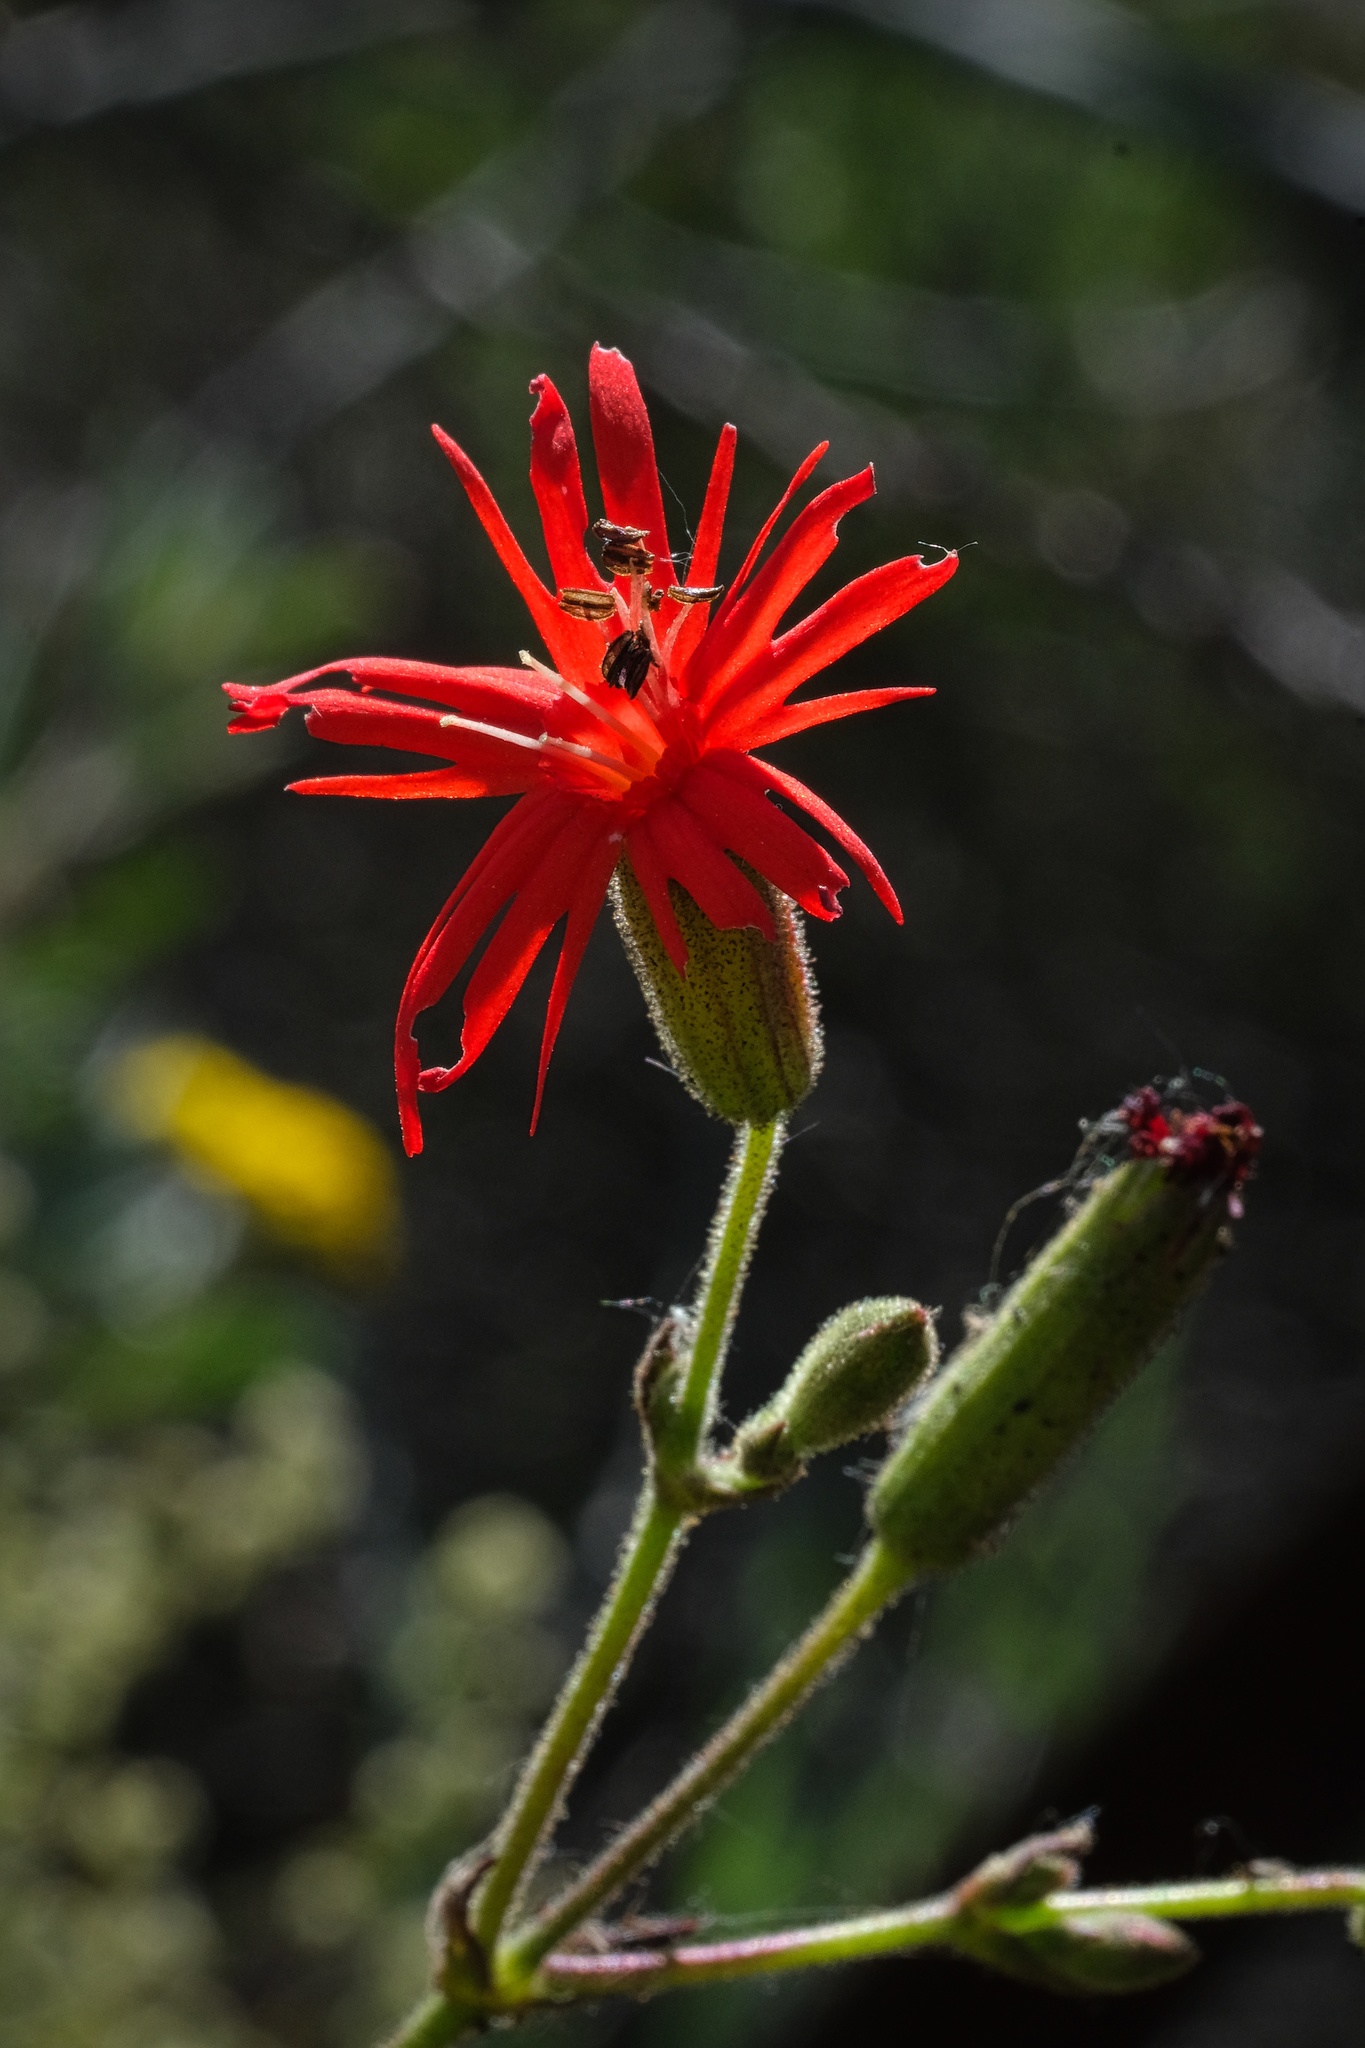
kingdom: Plantae
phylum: Tracheophyta
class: Magnoliopsida
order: Caryophyllales
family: Caryophyllaceae
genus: Silene
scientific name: Silene laciniata
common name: Indian-pink
